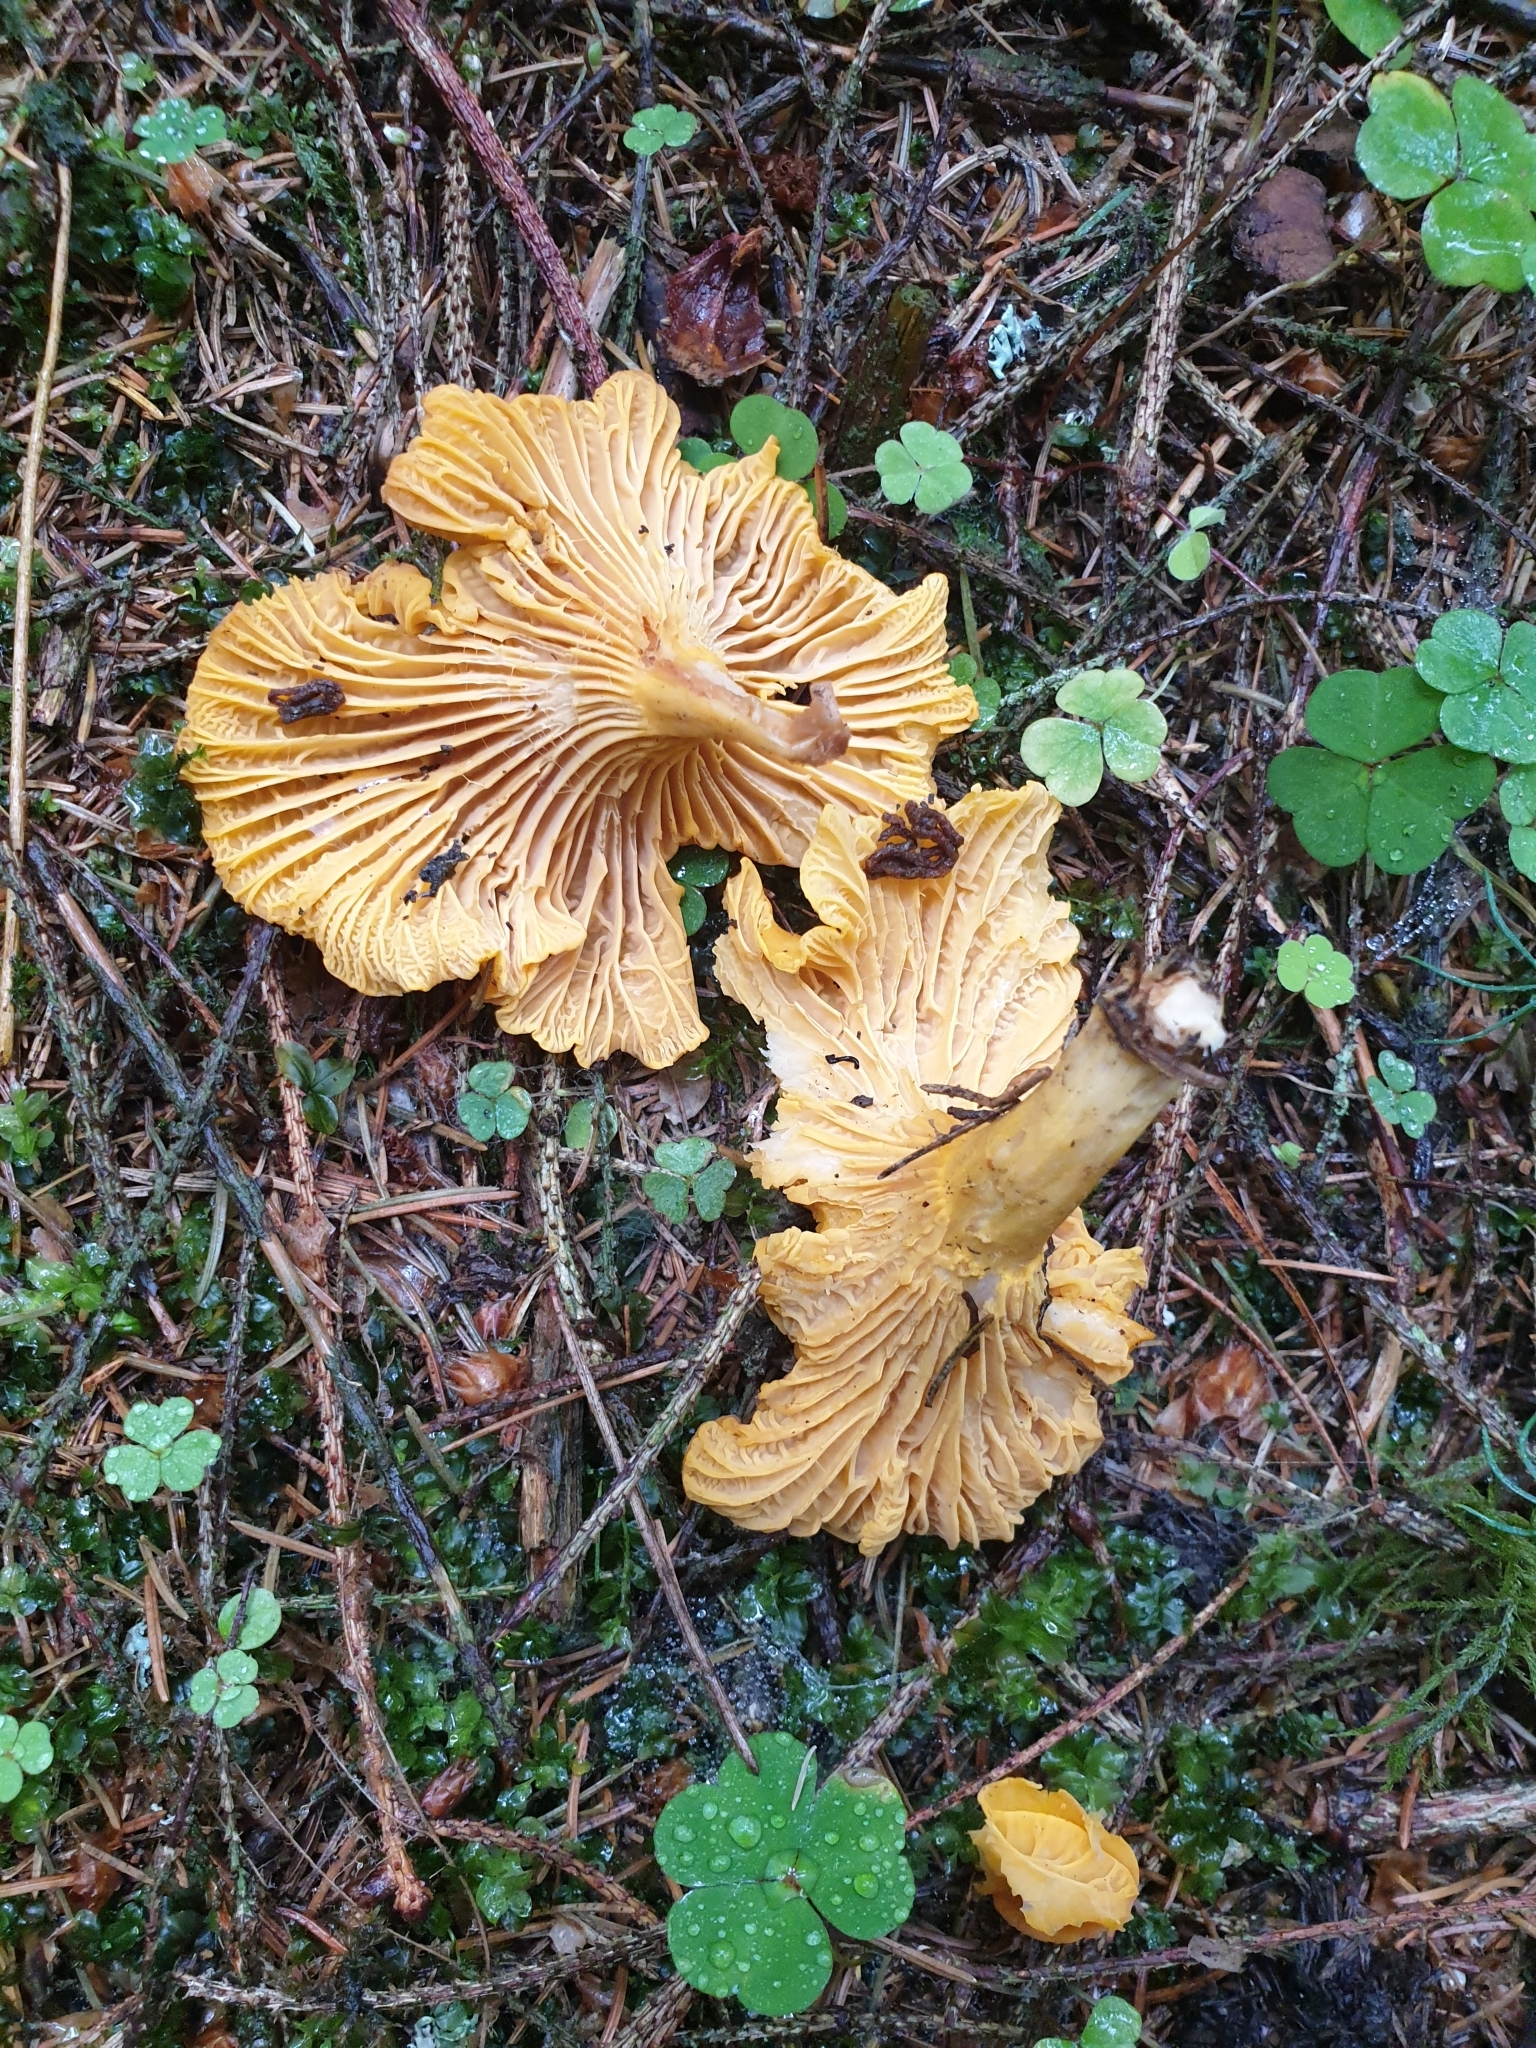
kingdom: Fungi
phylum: Basidiomycota
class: Agaricomycetes
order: Cantharellales
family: Hydnaceae
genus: Cantharellus
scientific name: Cantharellus cibarius
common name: Chanterelle
